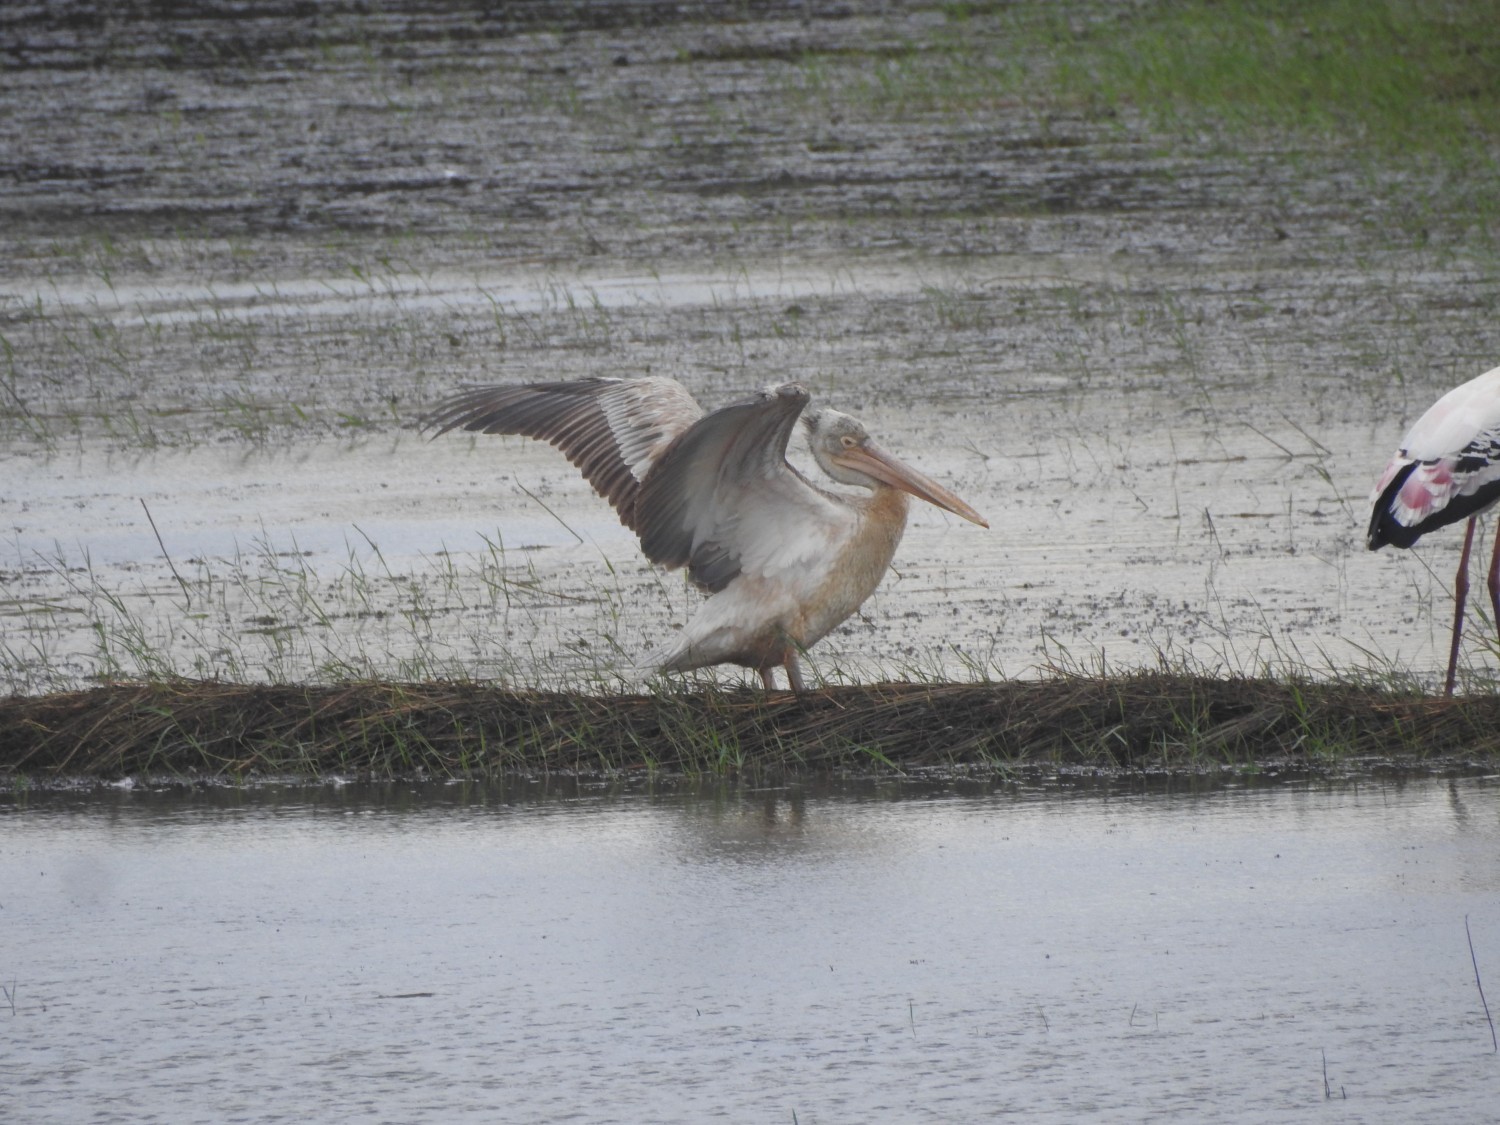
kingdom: Animalia
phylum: Chordata
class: Aves
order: Pelecaniformes
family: Pelecanidae
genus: Pelecanus
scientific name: Pelecanus philippensis
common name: Spot-billed pelican
